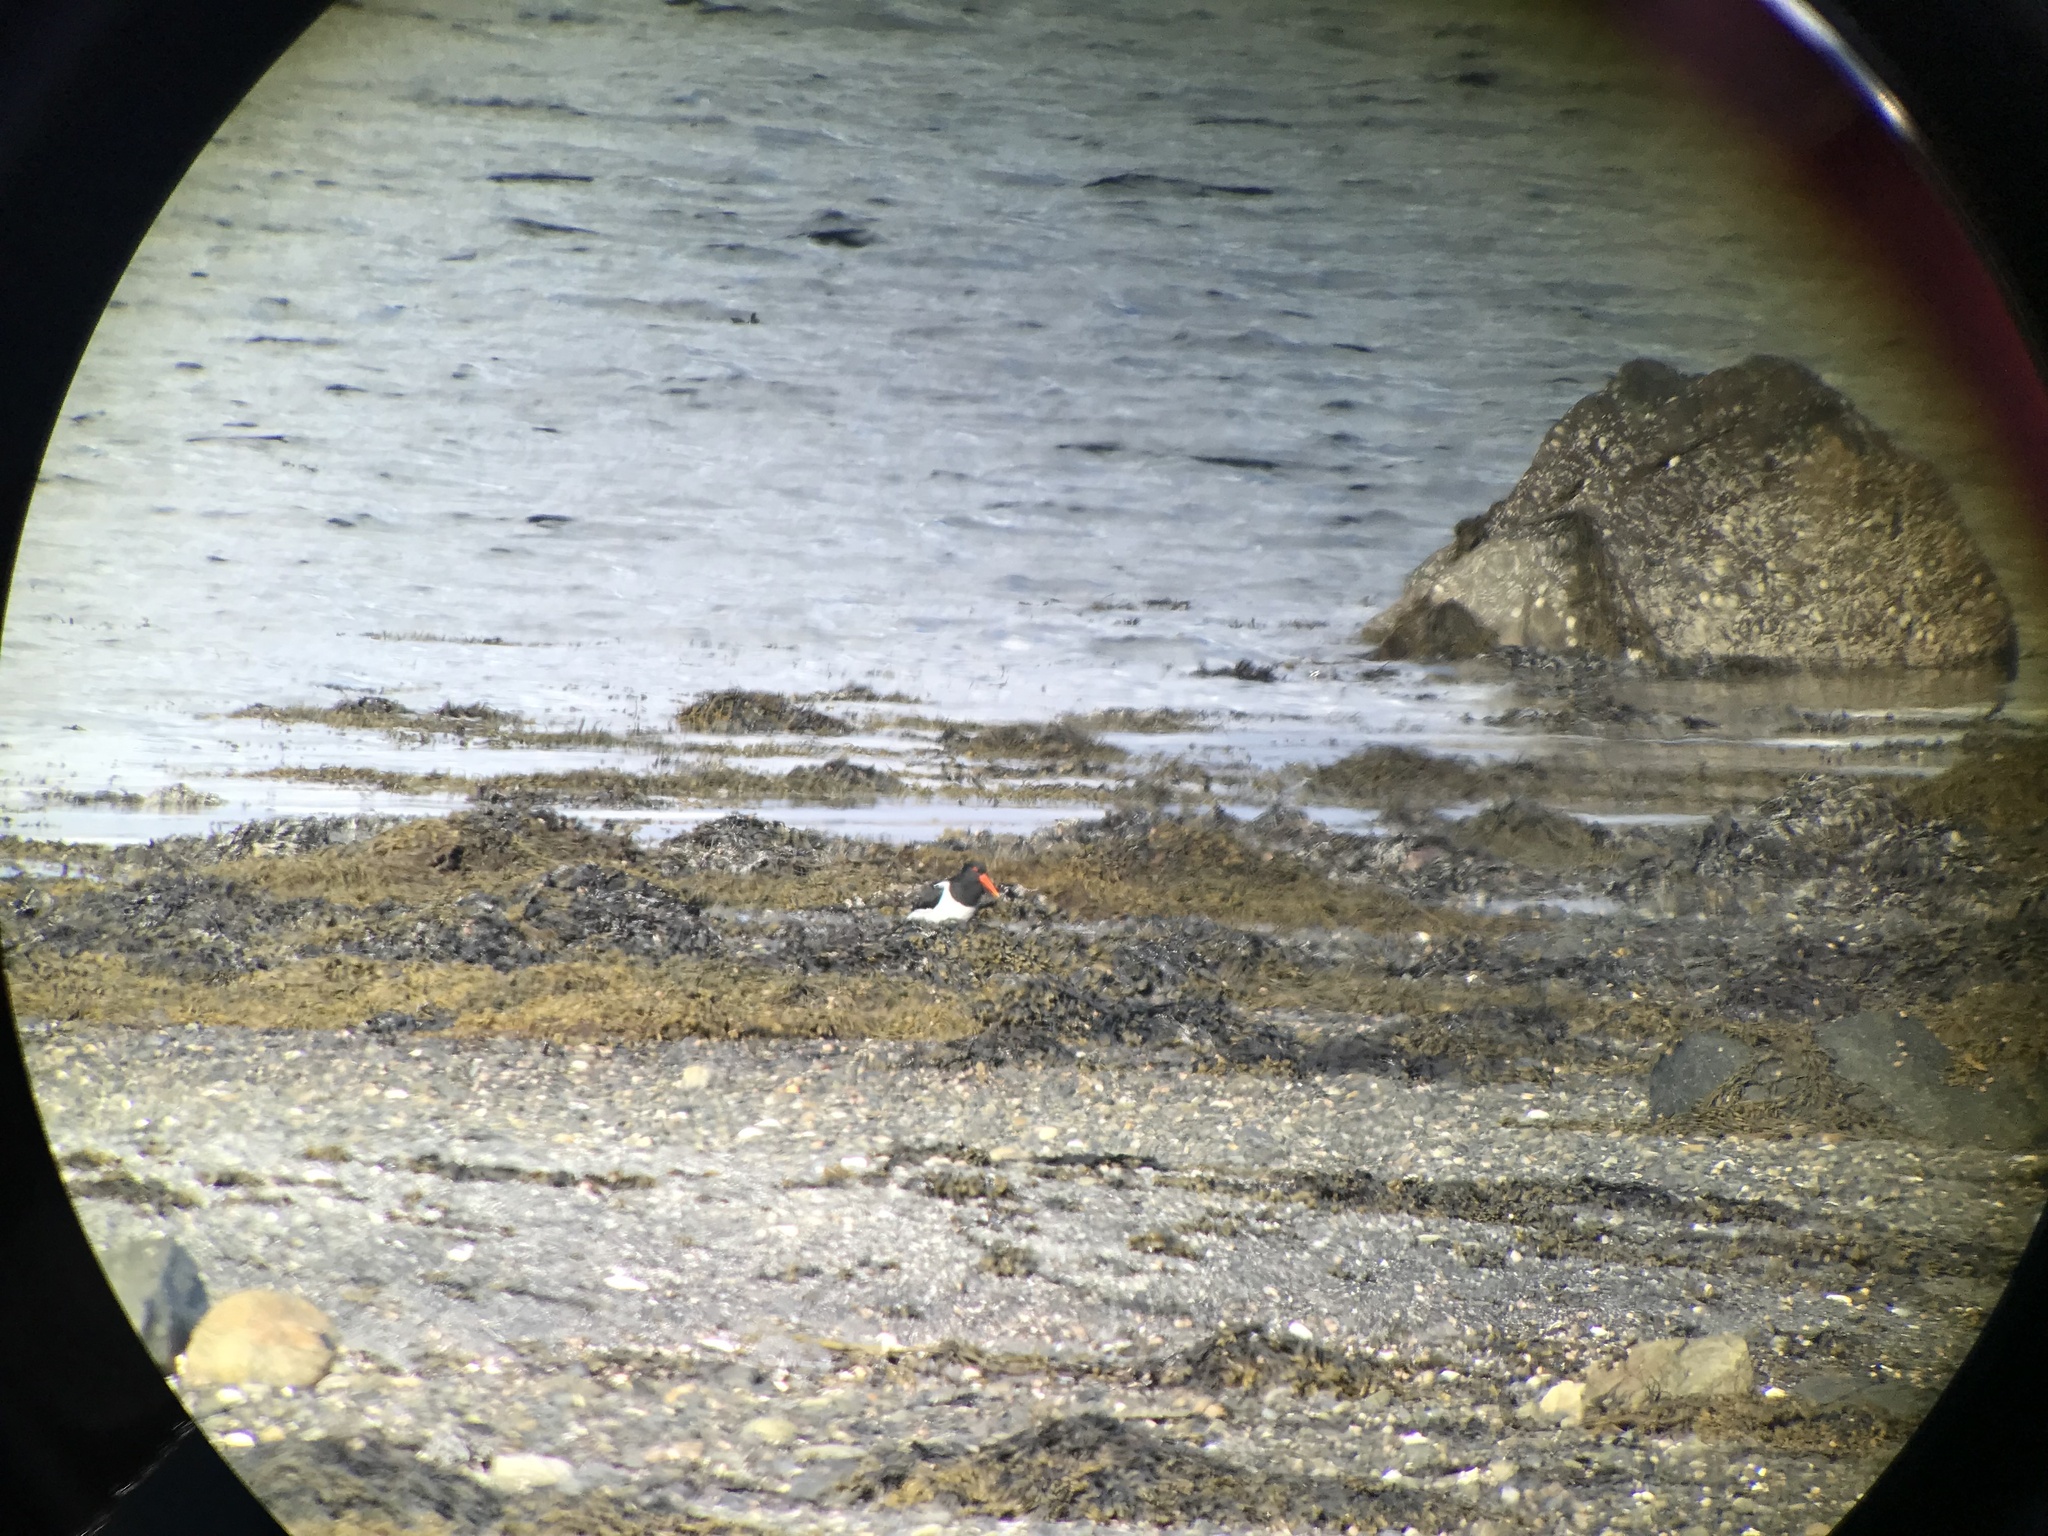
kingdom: Animalia
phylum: Chordata
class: Aves
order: Charadriiformes
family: Haematopodidae
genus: Haematopus
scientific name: Haematopus ostralegus
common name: Eurasian oystercatcher
